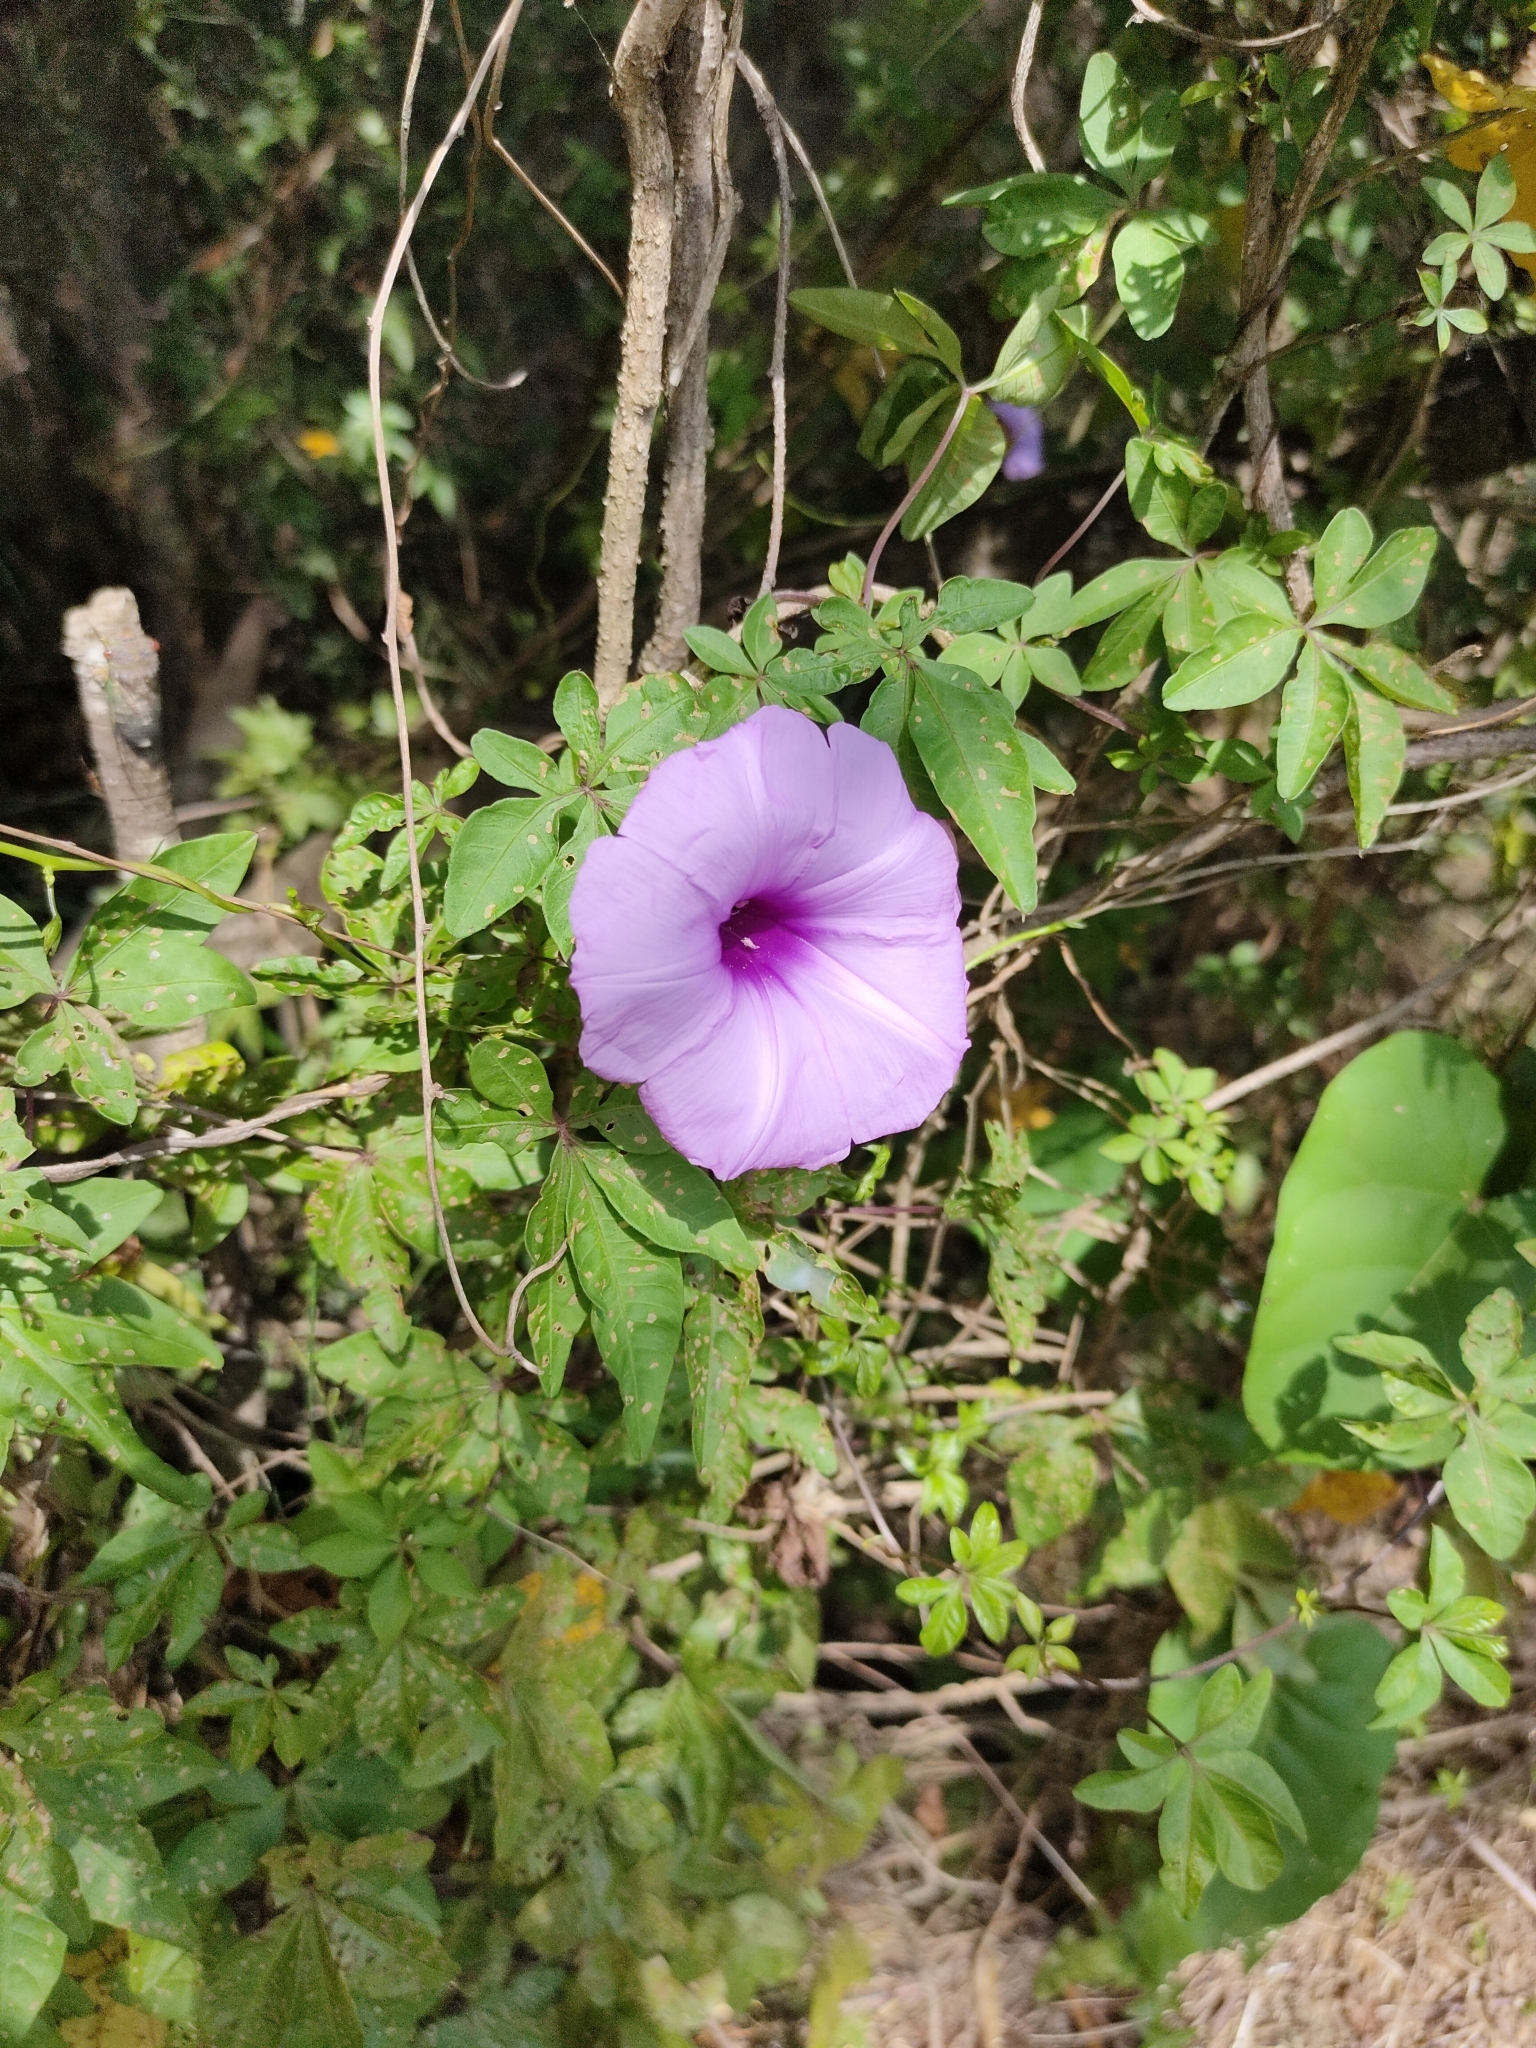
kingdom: Plantae
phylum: Tracheophyta
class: Magnoliopsida
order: Solanales
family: Convolvulaceae
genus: Ipomoea
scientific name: Ipomoea cairica
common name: Mile a minute vine
